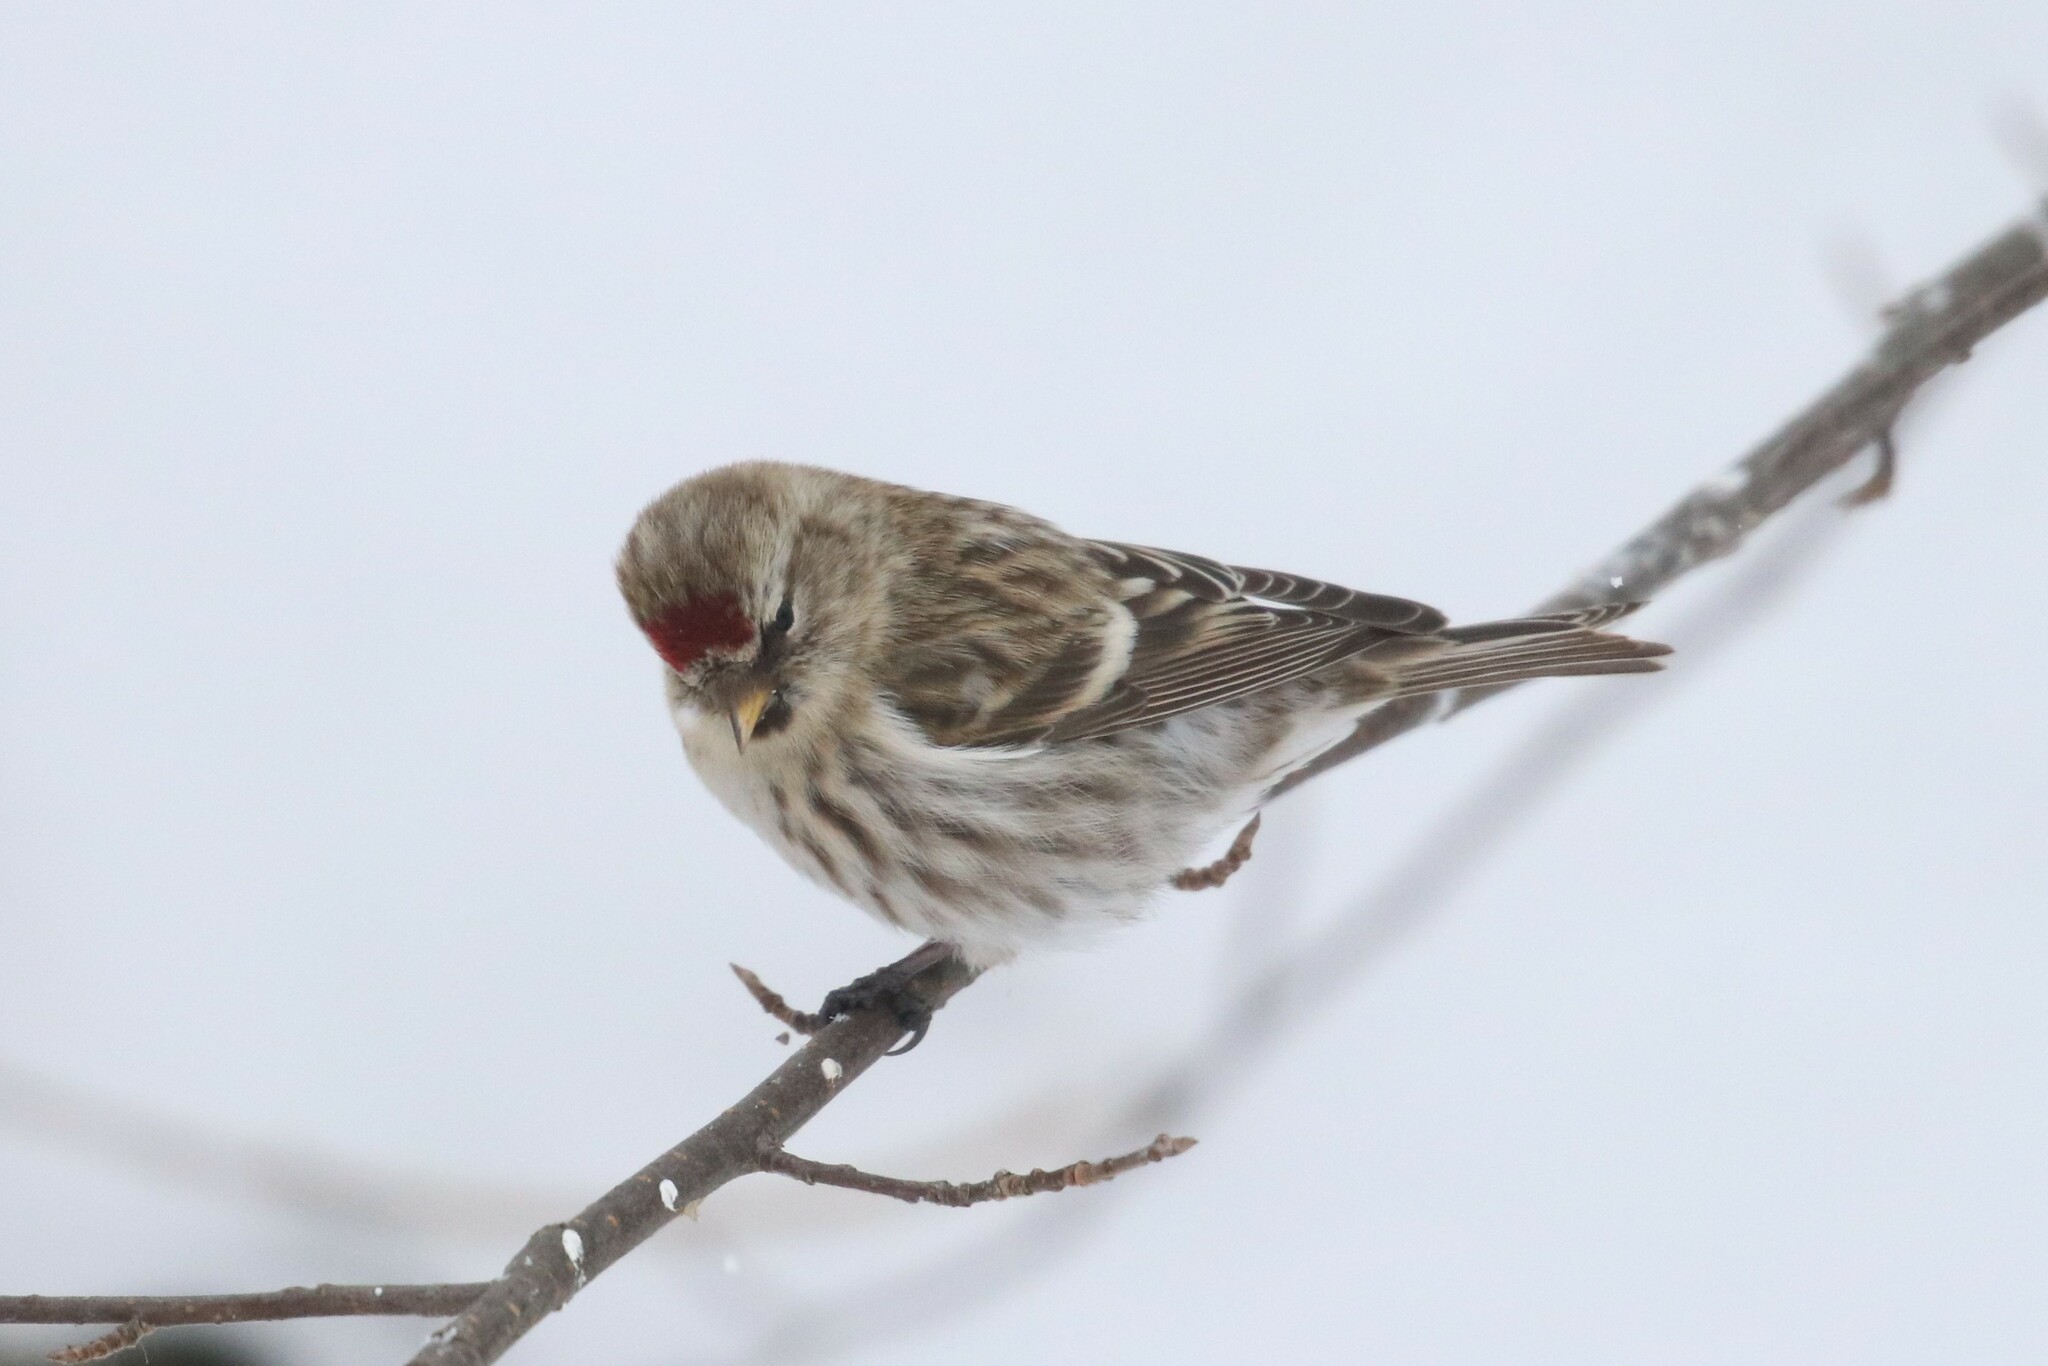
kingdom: Animalia
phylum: Chordata
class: Aves
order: Passeriformes
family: Fringillidae
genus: Acanthis
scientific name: Acanthis flammea
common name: Common redpoll
